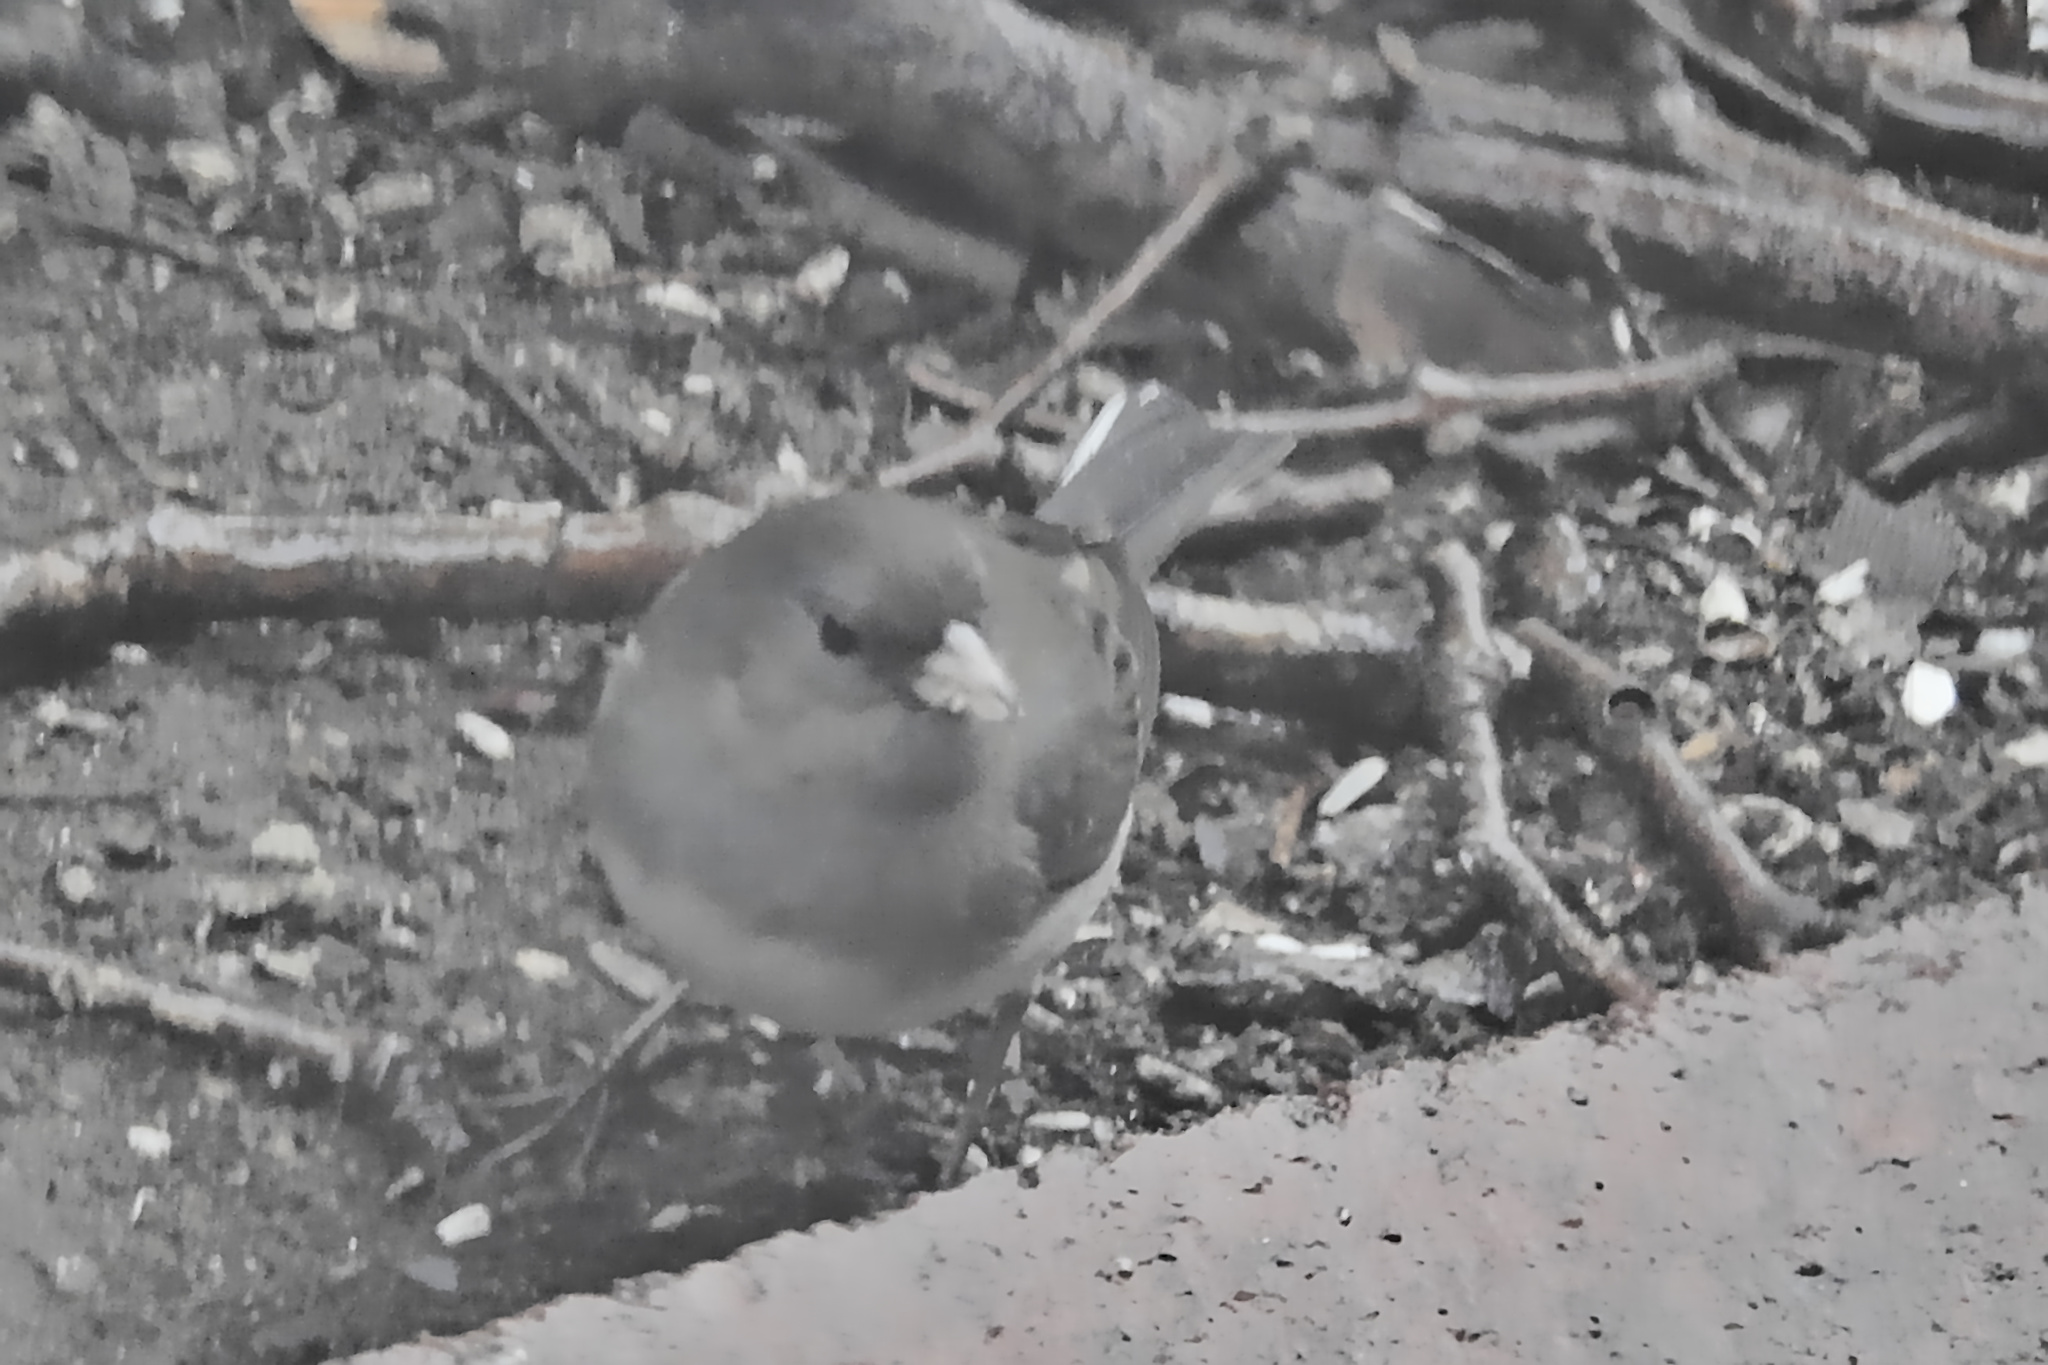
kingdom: Animalia
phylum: Chordata
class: Aves
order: Passeriformes
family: Passerellidae
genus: Junco
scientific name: Junco hyemalis
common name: Dark-eyed junco
